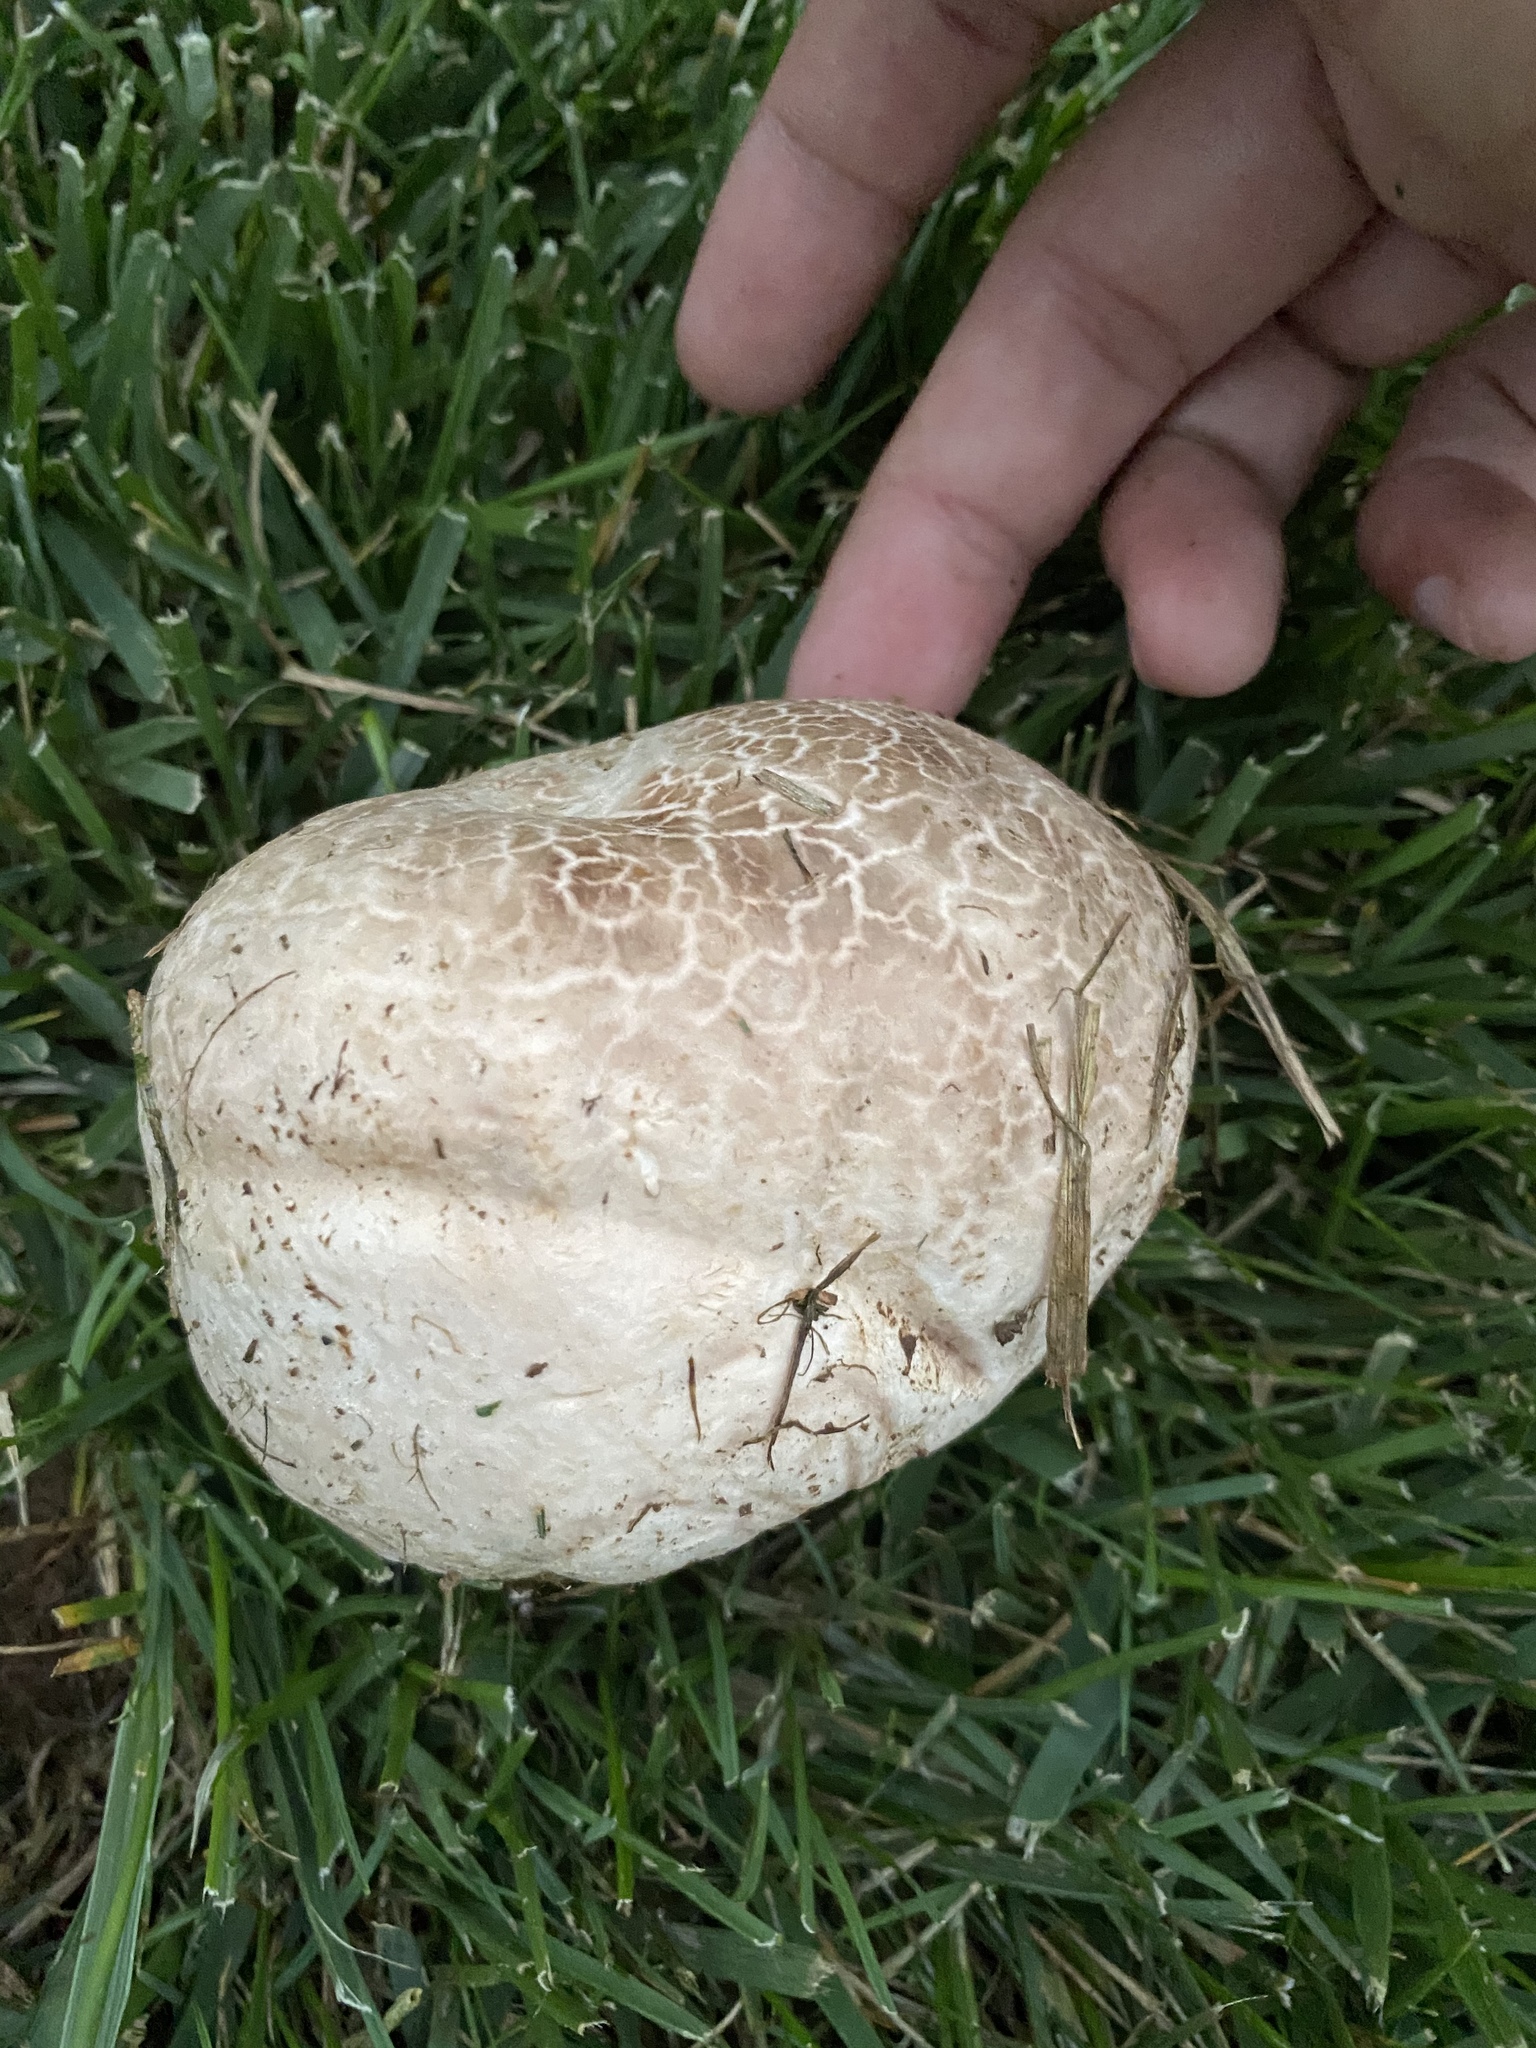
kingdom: Fungi
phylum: Basidiomycota
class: Agaricomycetes
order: Agaricales
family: Lycoperdaceae
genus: Calvatia
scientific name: Calvatia cyathiformis
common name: Purple-spored puffball
